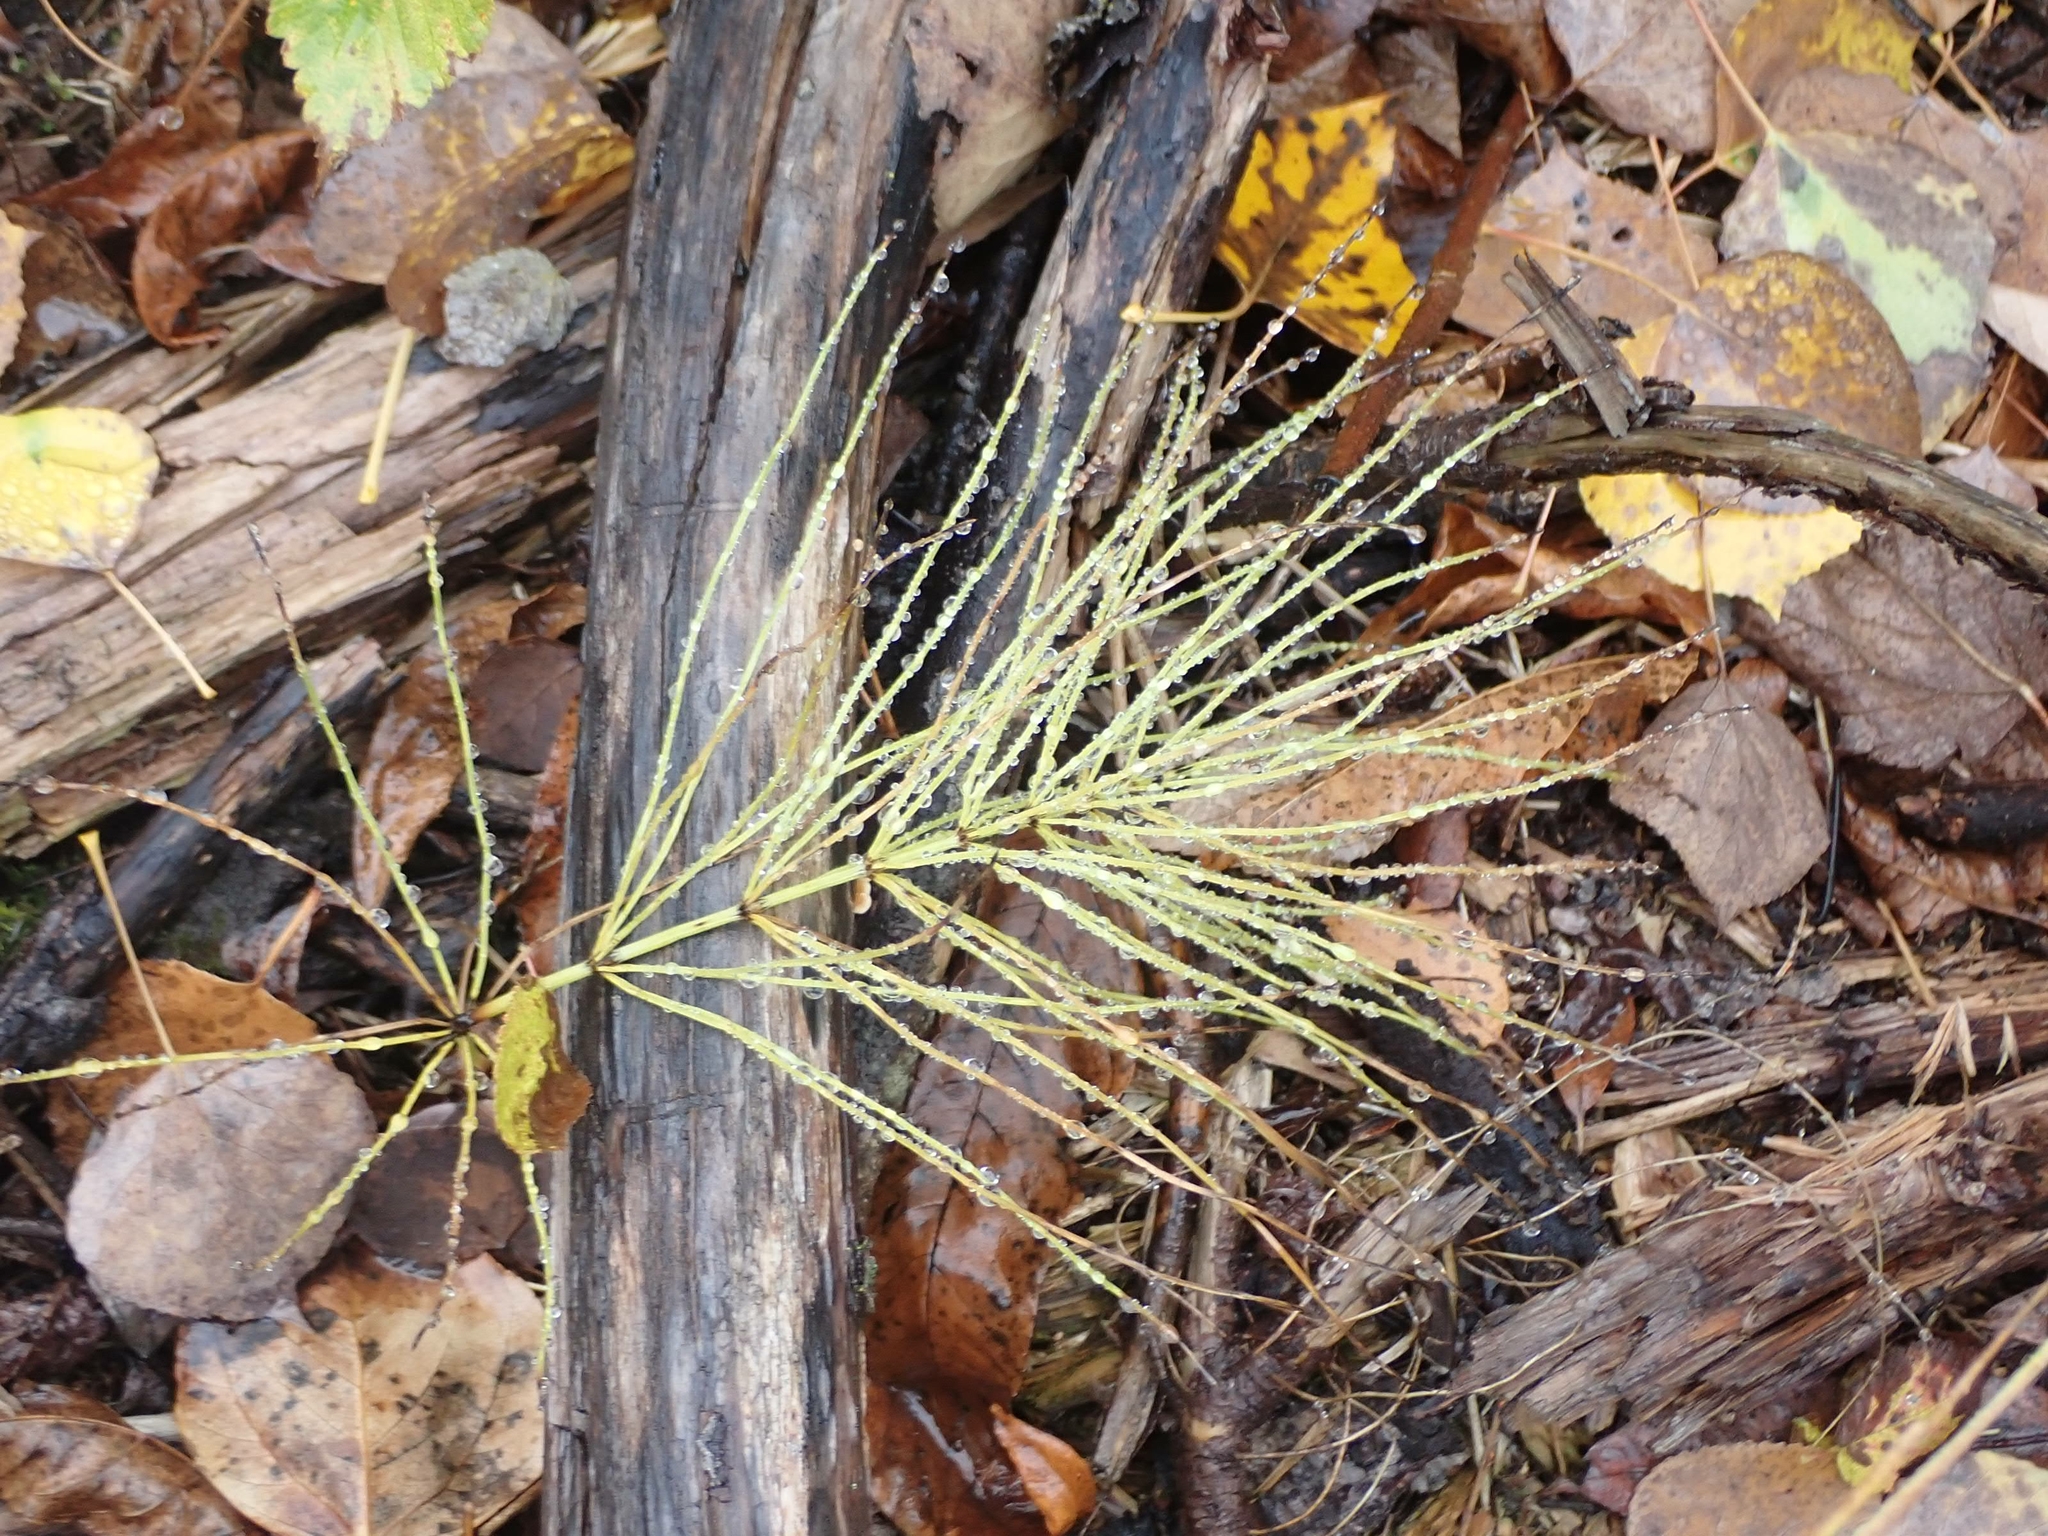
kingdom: Plantae
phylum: Tracheophyta
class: Polypodiopsida
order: Equisetales
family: Equisetaceae
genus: Equisetum
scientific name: Equisetum arvense
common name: Field horsetail
